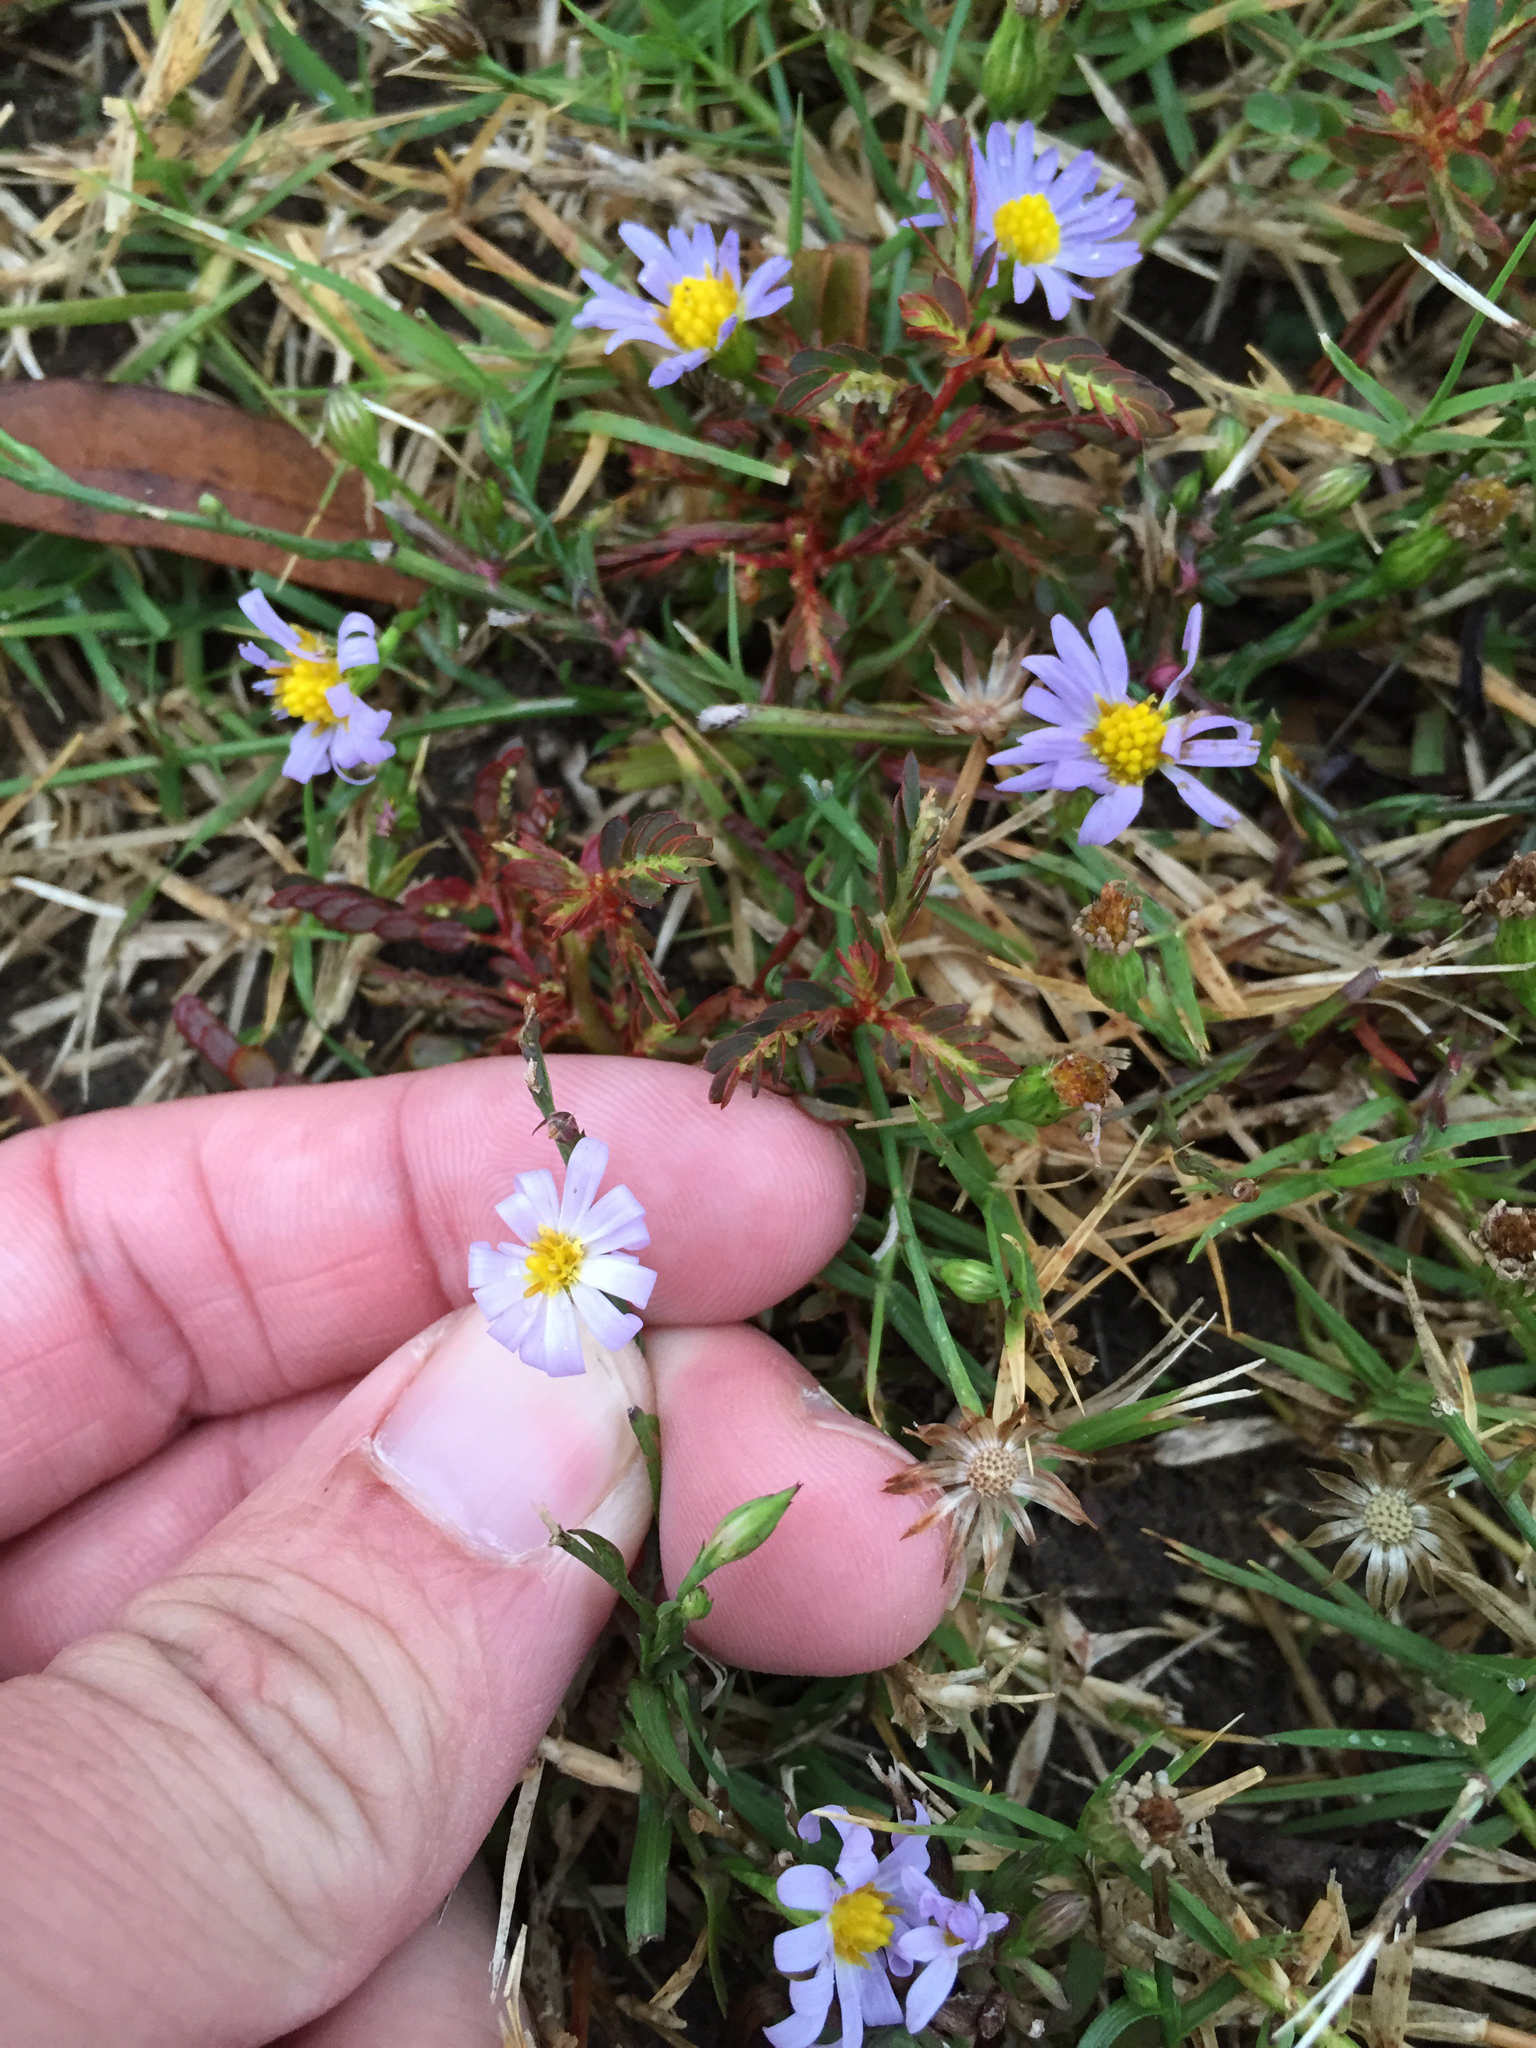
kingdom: Plantae
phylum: Tracheophyta
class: Magnoliopsida
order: Asterales
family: Asteraceae
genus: Symphyotrichum
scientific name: Symphyotrichum divaricatum
